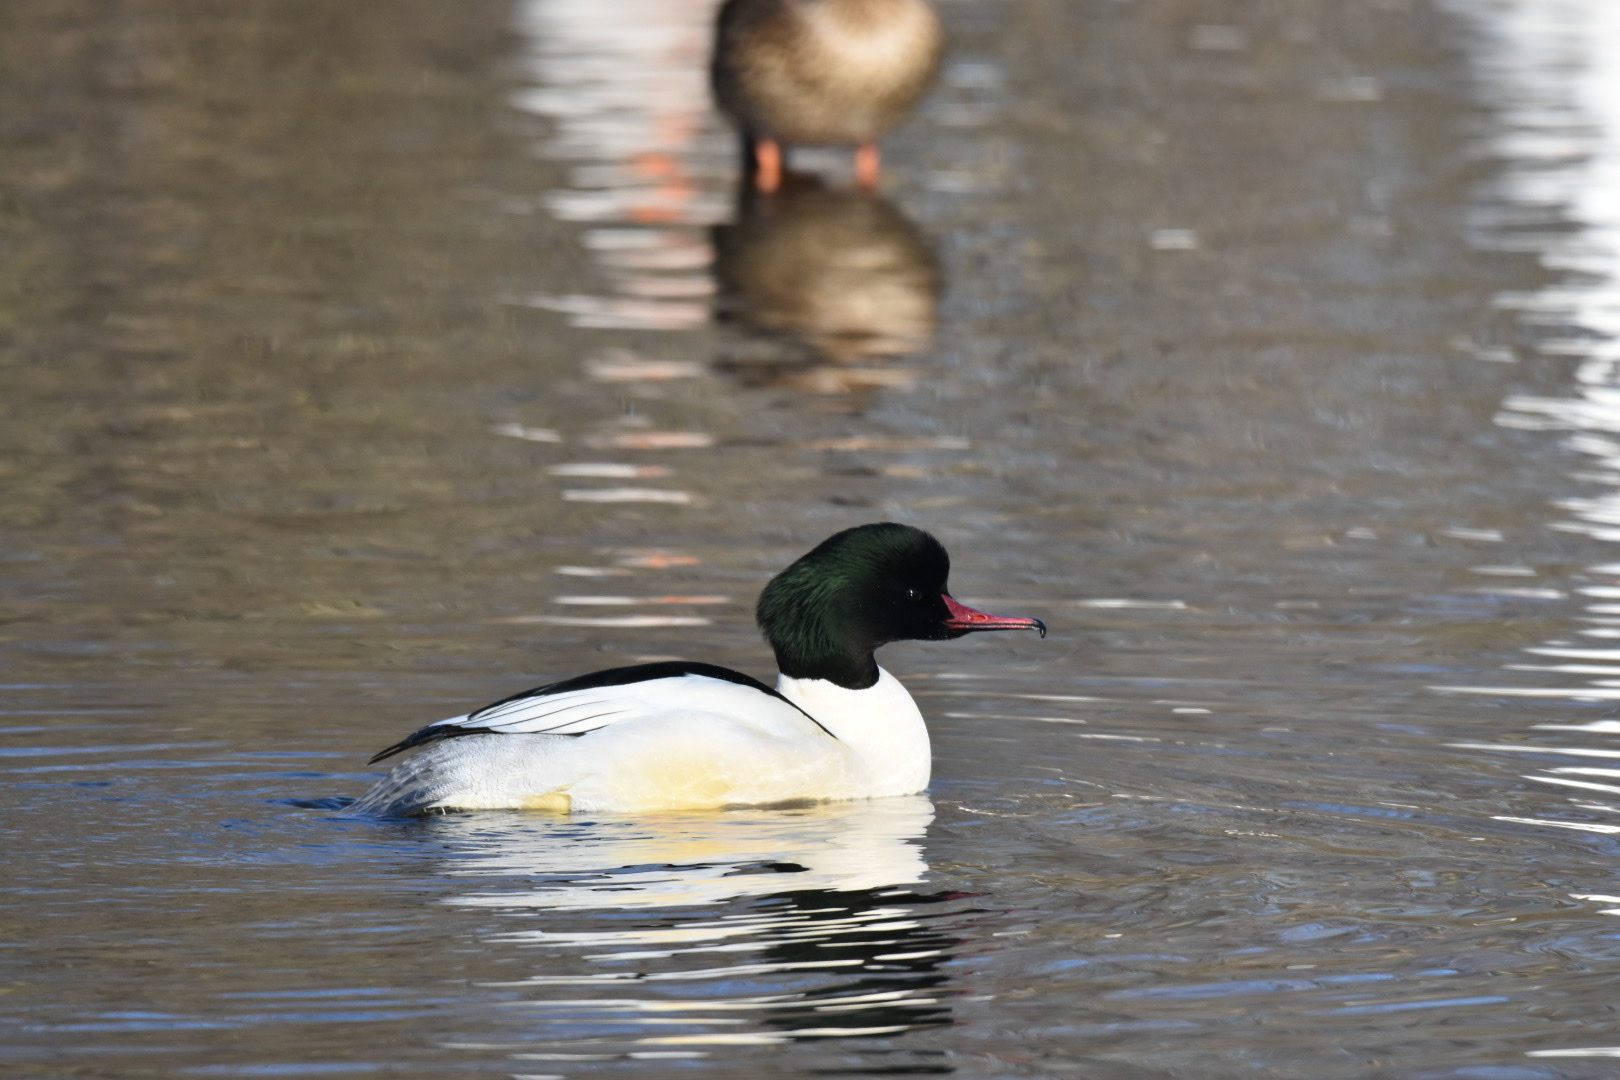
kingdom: Animalia
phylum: Chordata
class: Aves
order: Anseriformes
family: Anatidae
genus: Mergus
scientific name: Mergus merganser
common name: Common merganser
